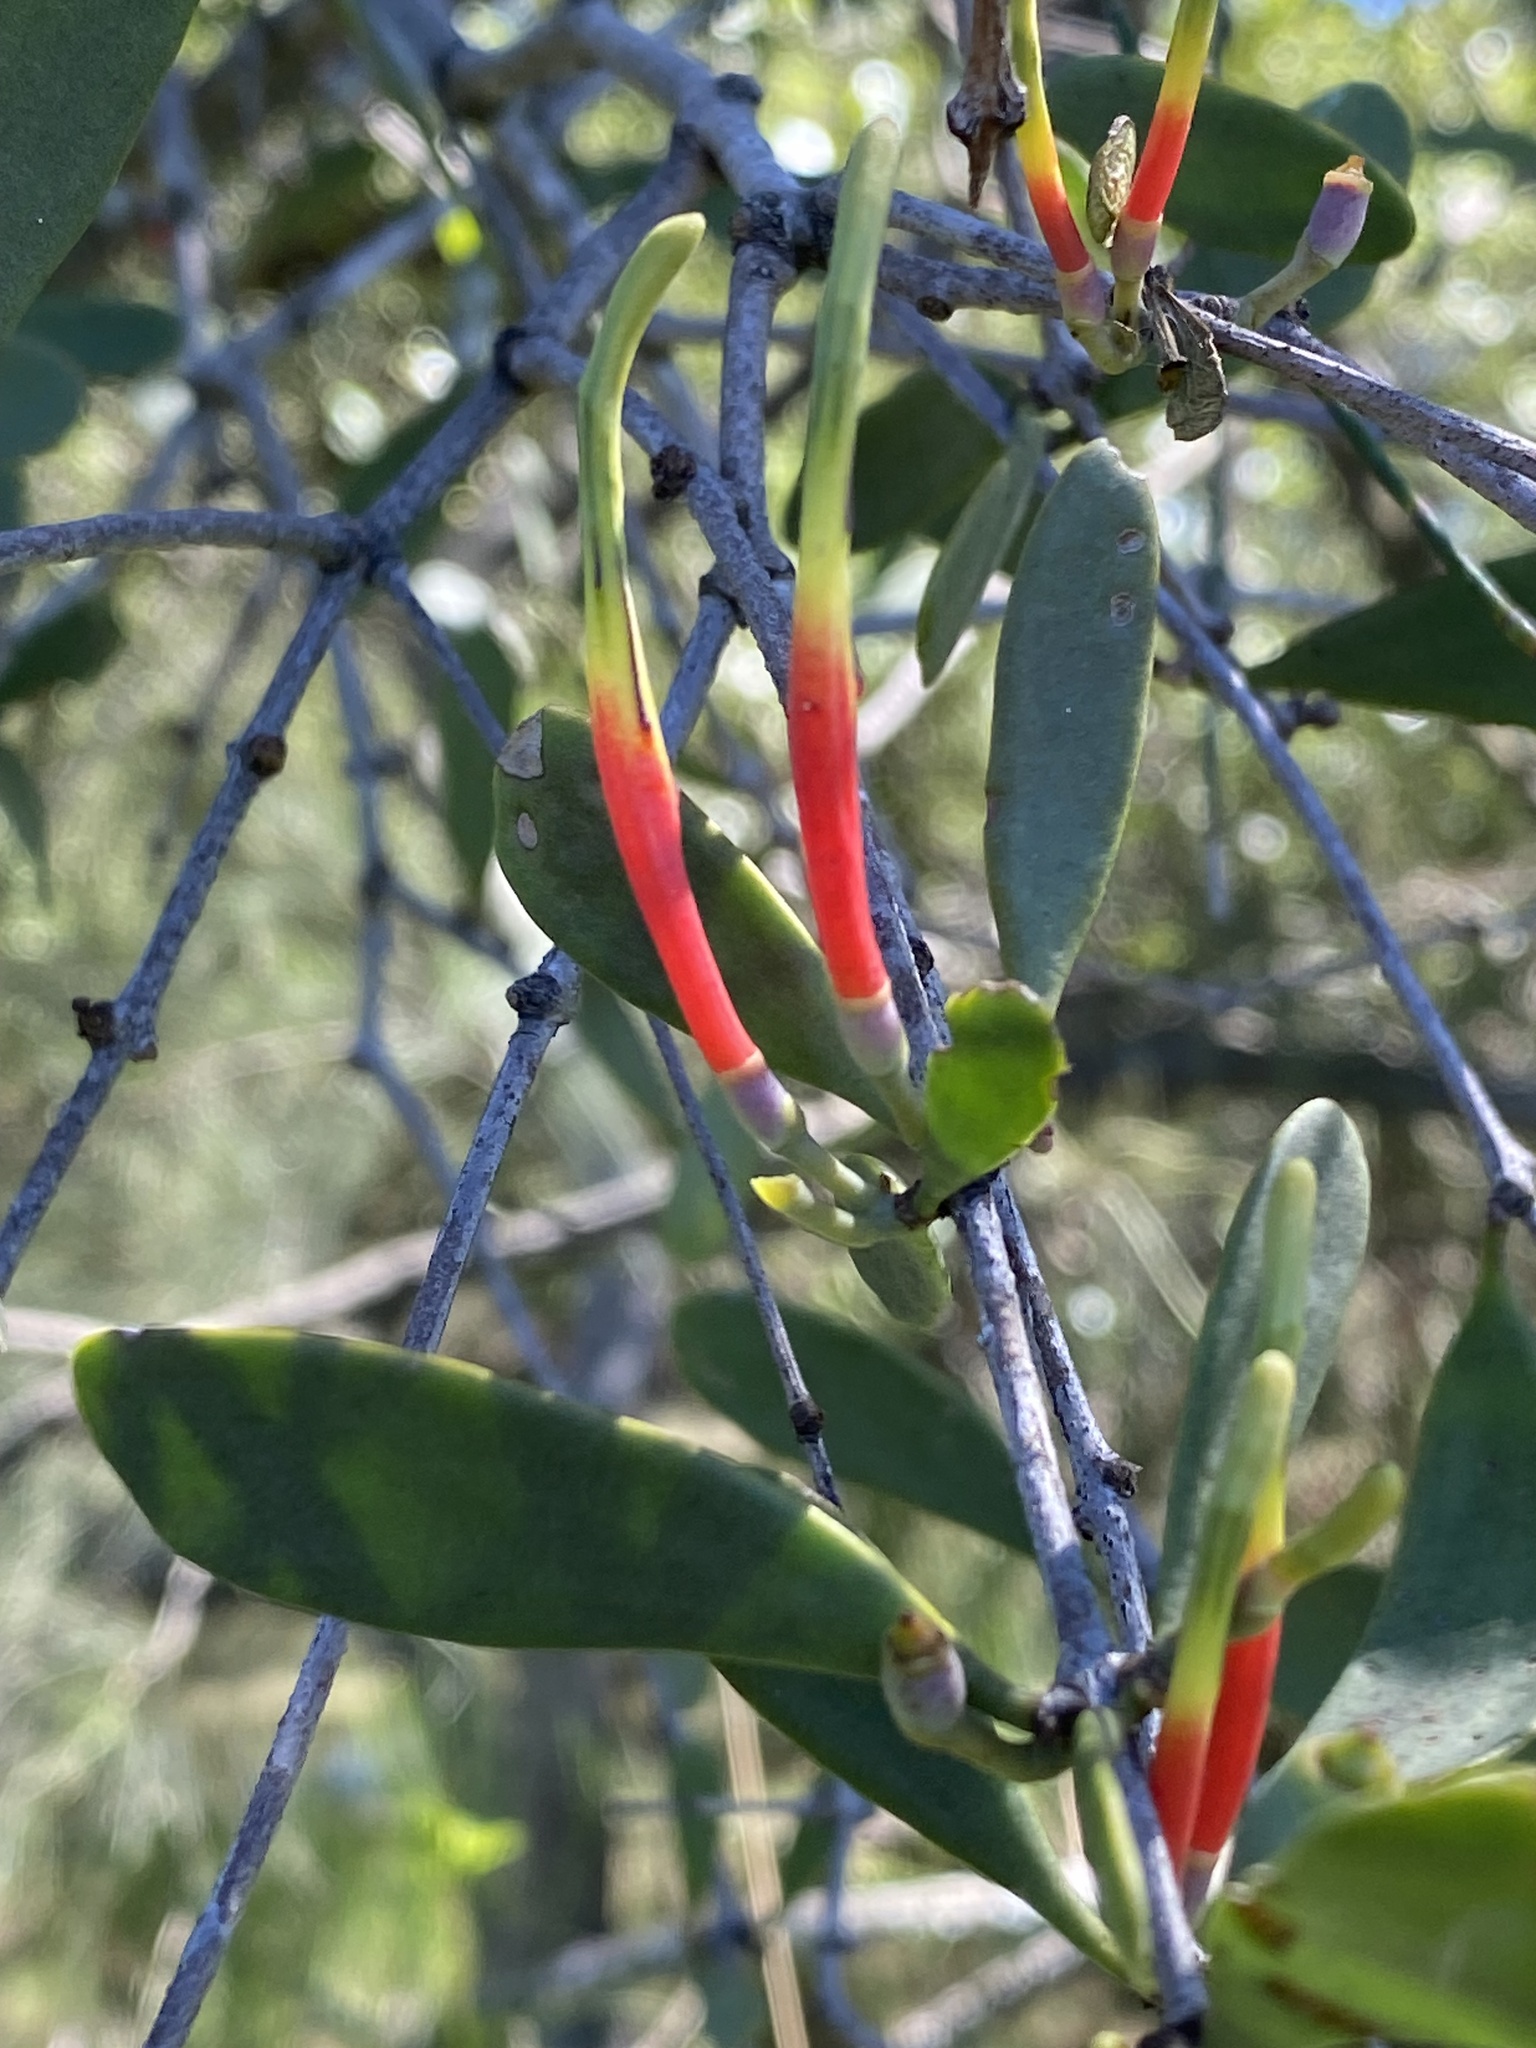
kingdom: Plantae
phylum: Tracheophyta
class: Magnoliopsida
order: Santalales
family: Loranthaceae
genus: Lysiana
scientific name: Lysiana maritima
